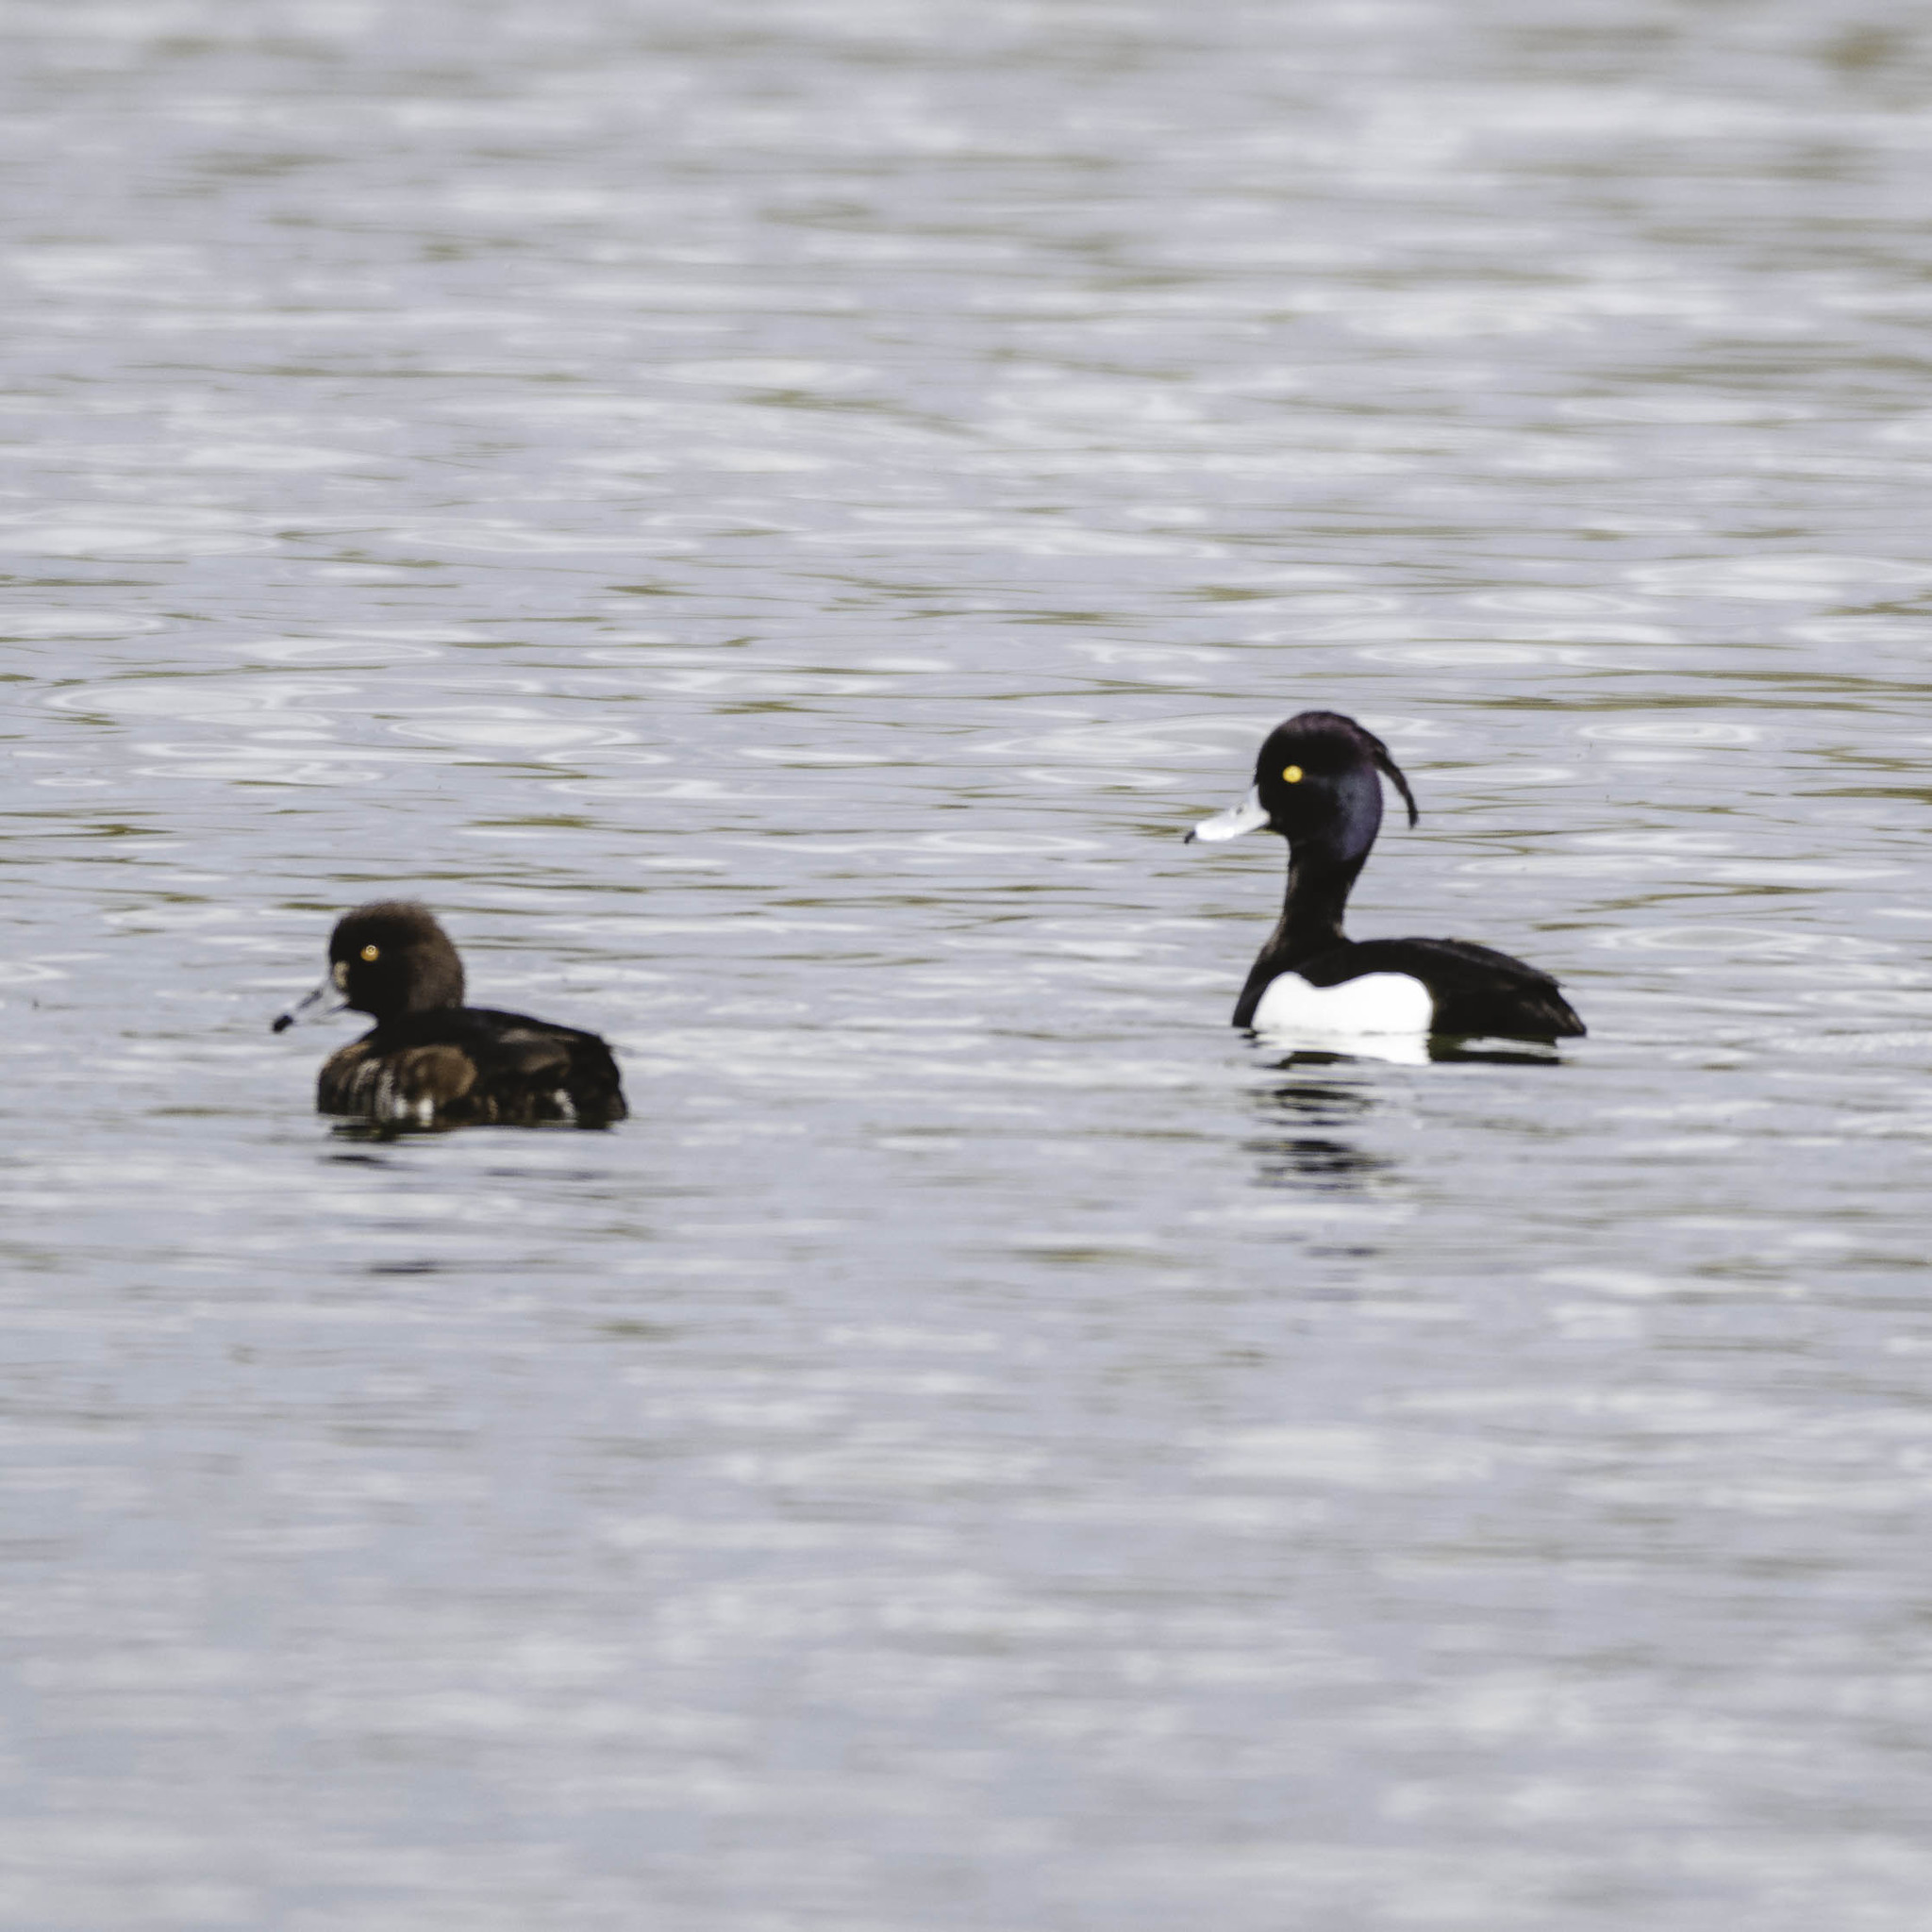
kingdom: Animalia
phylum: Chordata
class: Aves
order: Anseriformes
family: Anatidae
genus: Aythya
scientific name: Aythya fuligula
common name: Tufted duck
